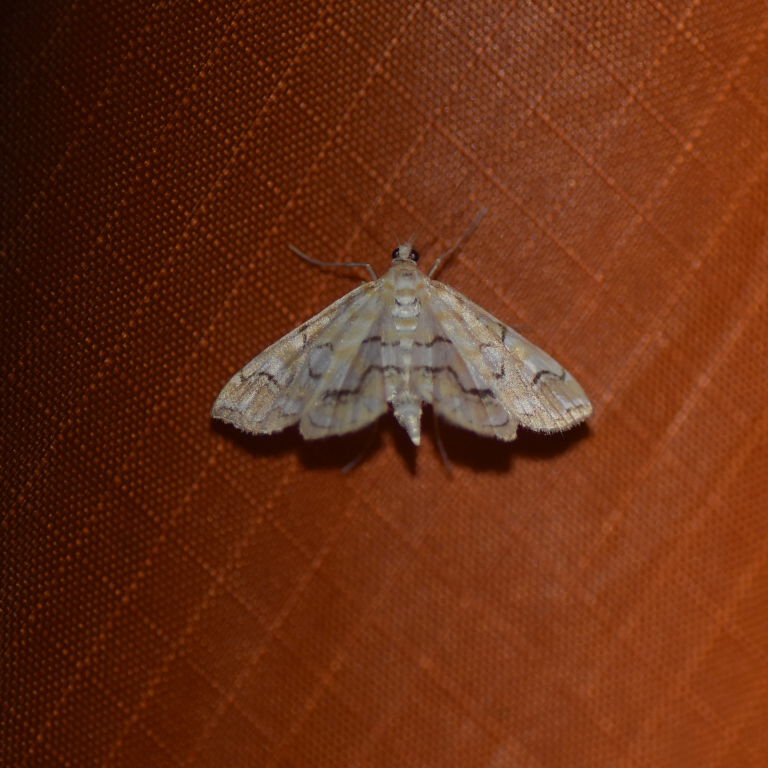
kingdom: Animalia
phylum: Arthropoda
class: Insecta
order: Lepidoptera
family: Crambidae
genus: Elophila
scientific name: Elophila icciusalis
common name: Pondside pyralid moth
